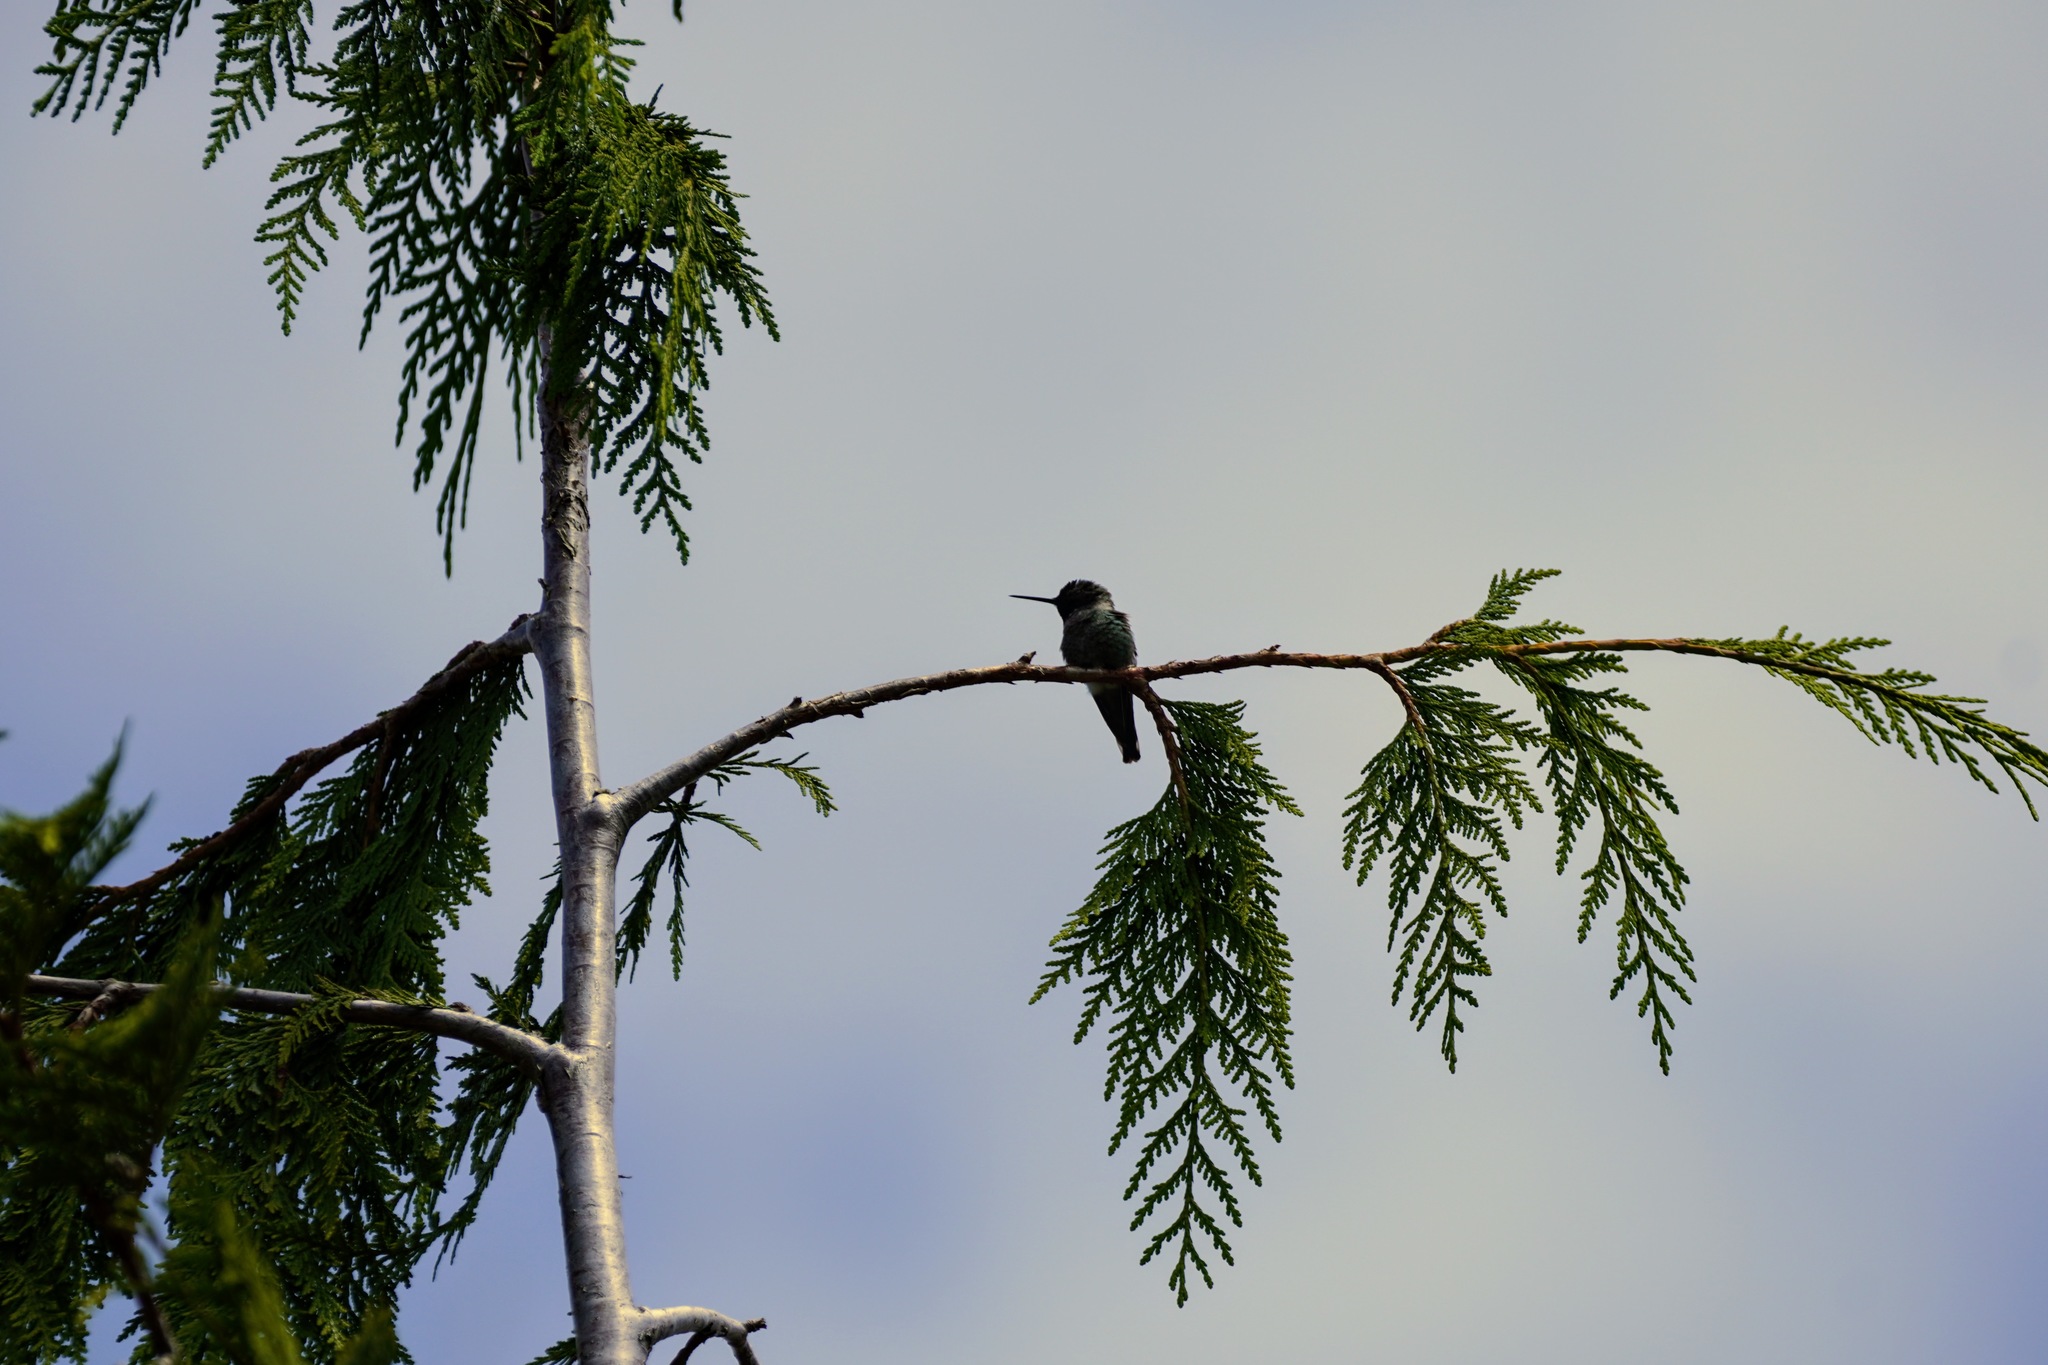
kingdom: Animalia
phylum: Chordata
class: Aves
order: Apodiformes
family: Trochilidae
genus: Calypte
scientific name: Calypte anna
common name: Anna's hummingbird
